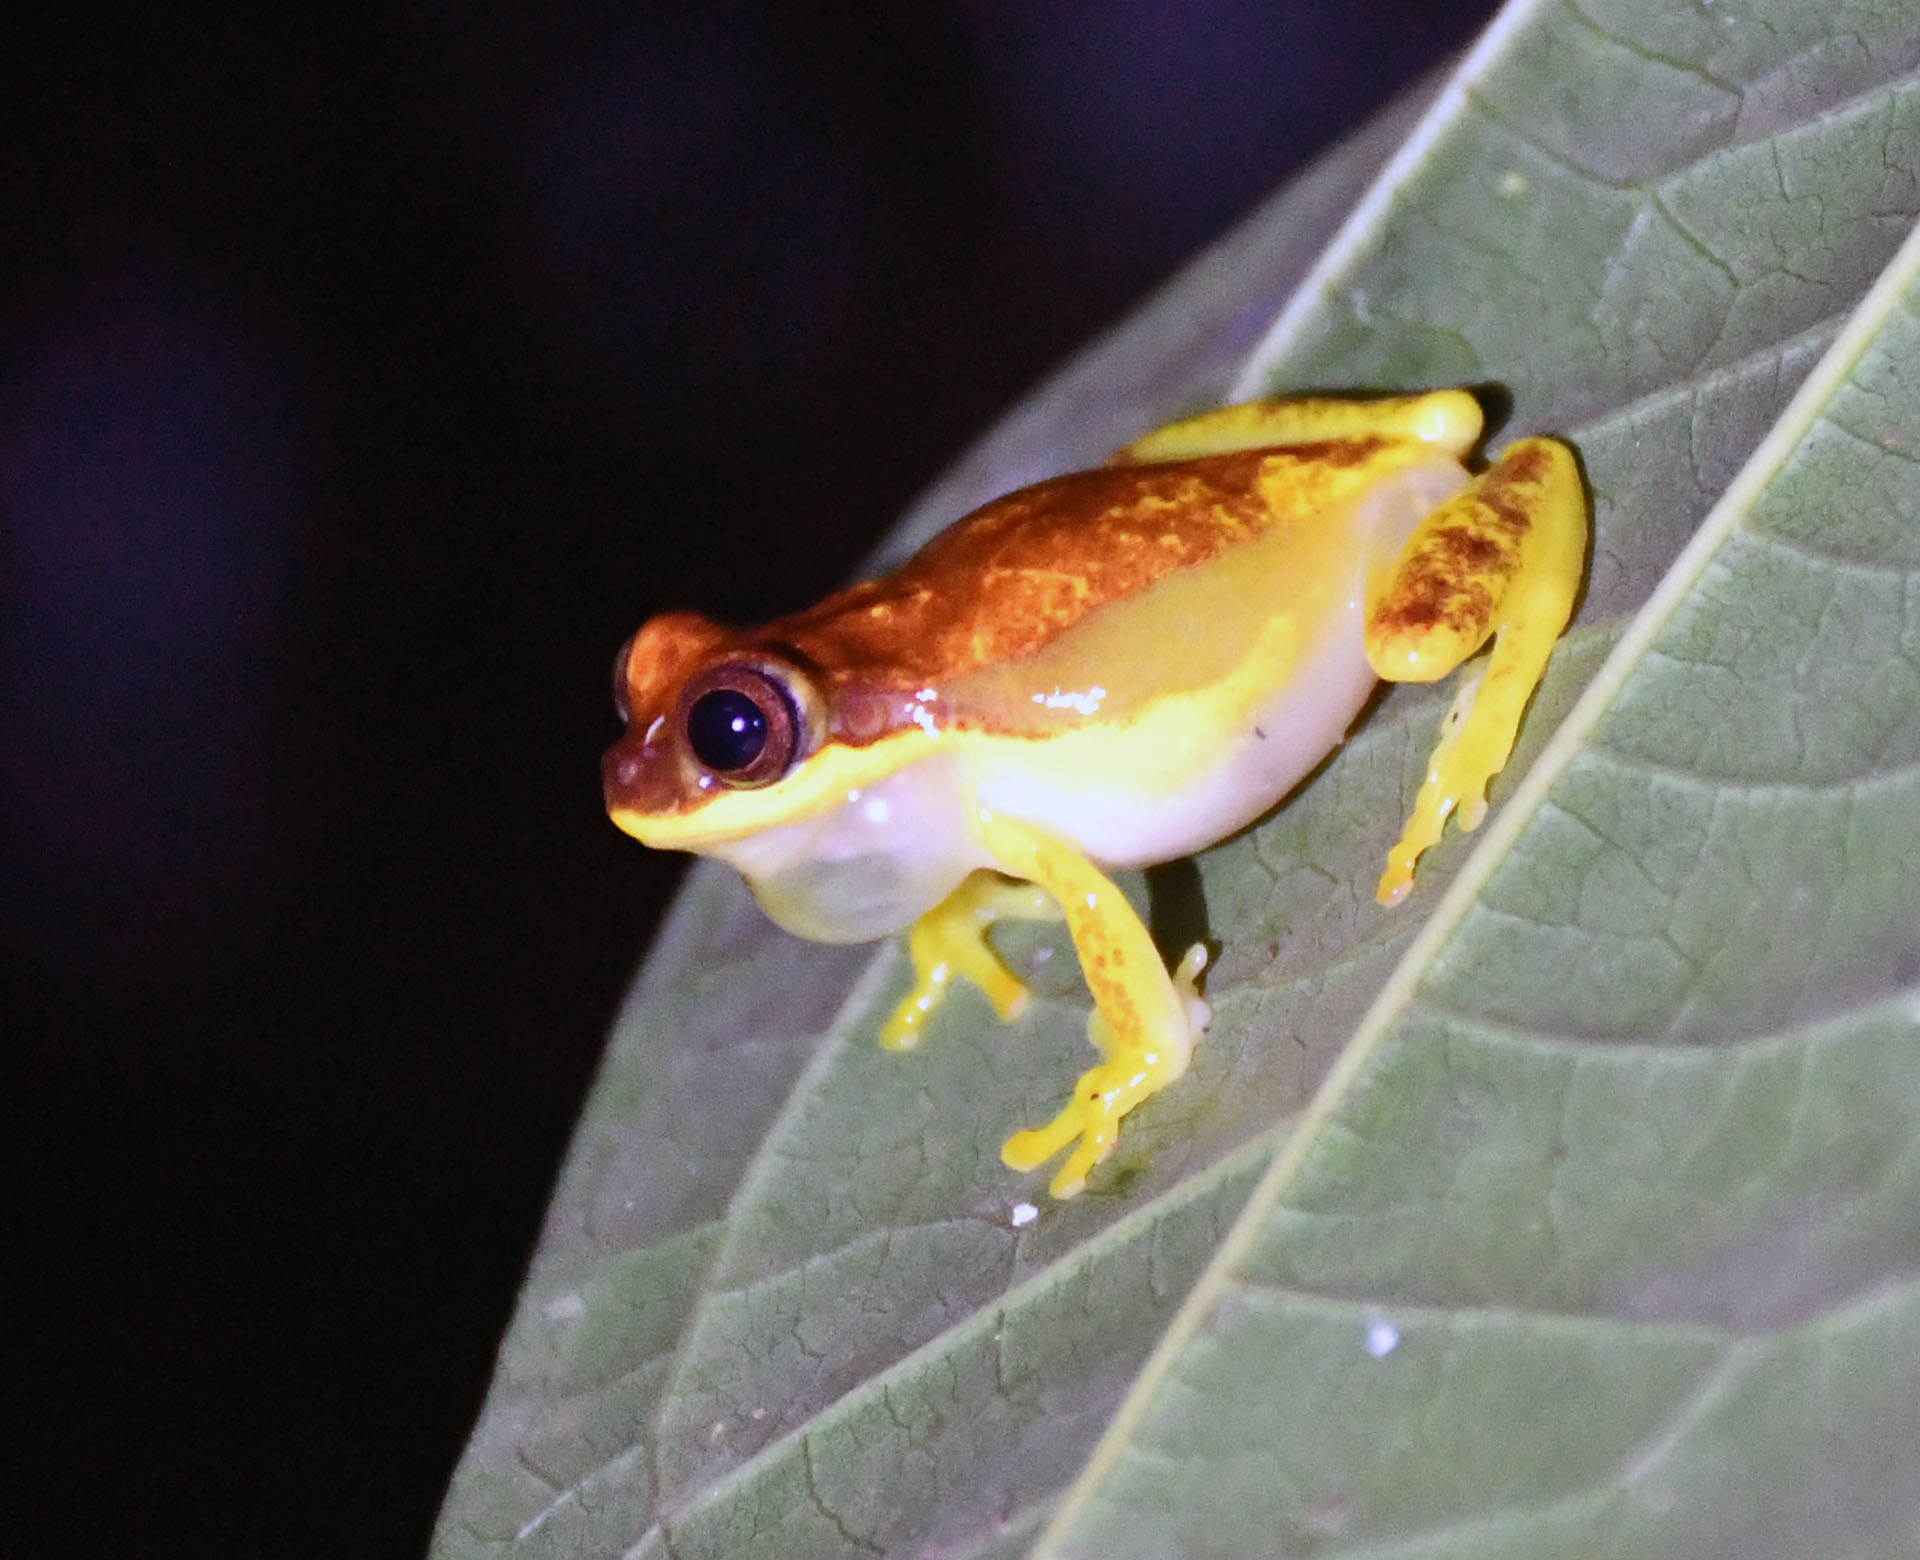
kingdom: Animalia
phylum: Chordata
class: Amphibia
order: Anura
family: Hylidae
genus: Dendropsophus
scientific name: Dendropsophus rhodopeplus
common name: Red-skirted treefrog
